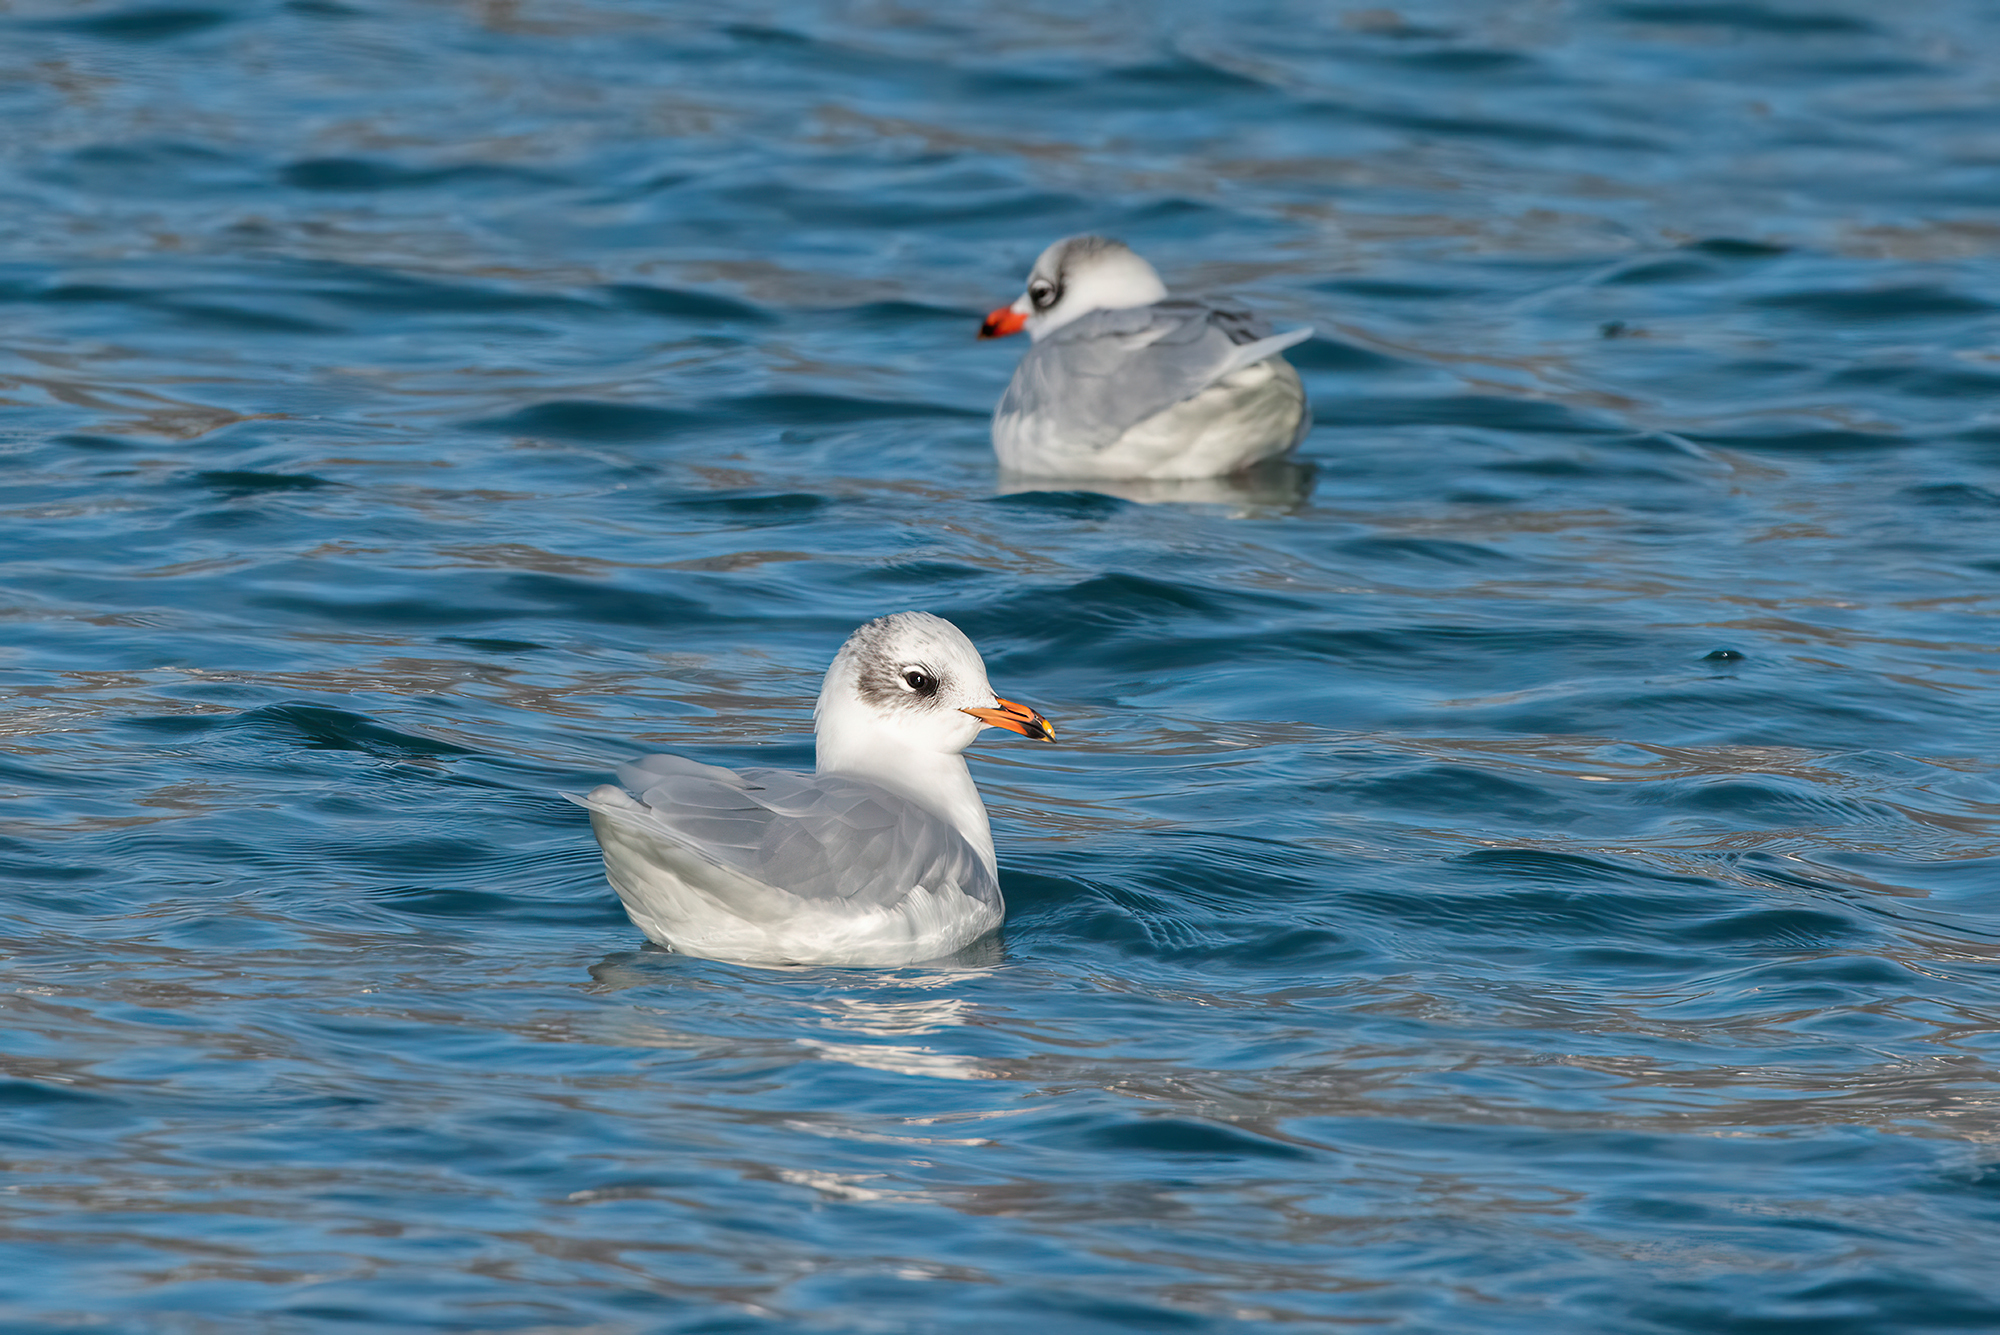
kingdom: Animalia
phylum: Chordata
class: Aves
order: Charadriiformes
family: Laridae
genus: Ichthyaetus
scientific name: Ichthyaetus melanocephalus
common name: Mediterranean gull
